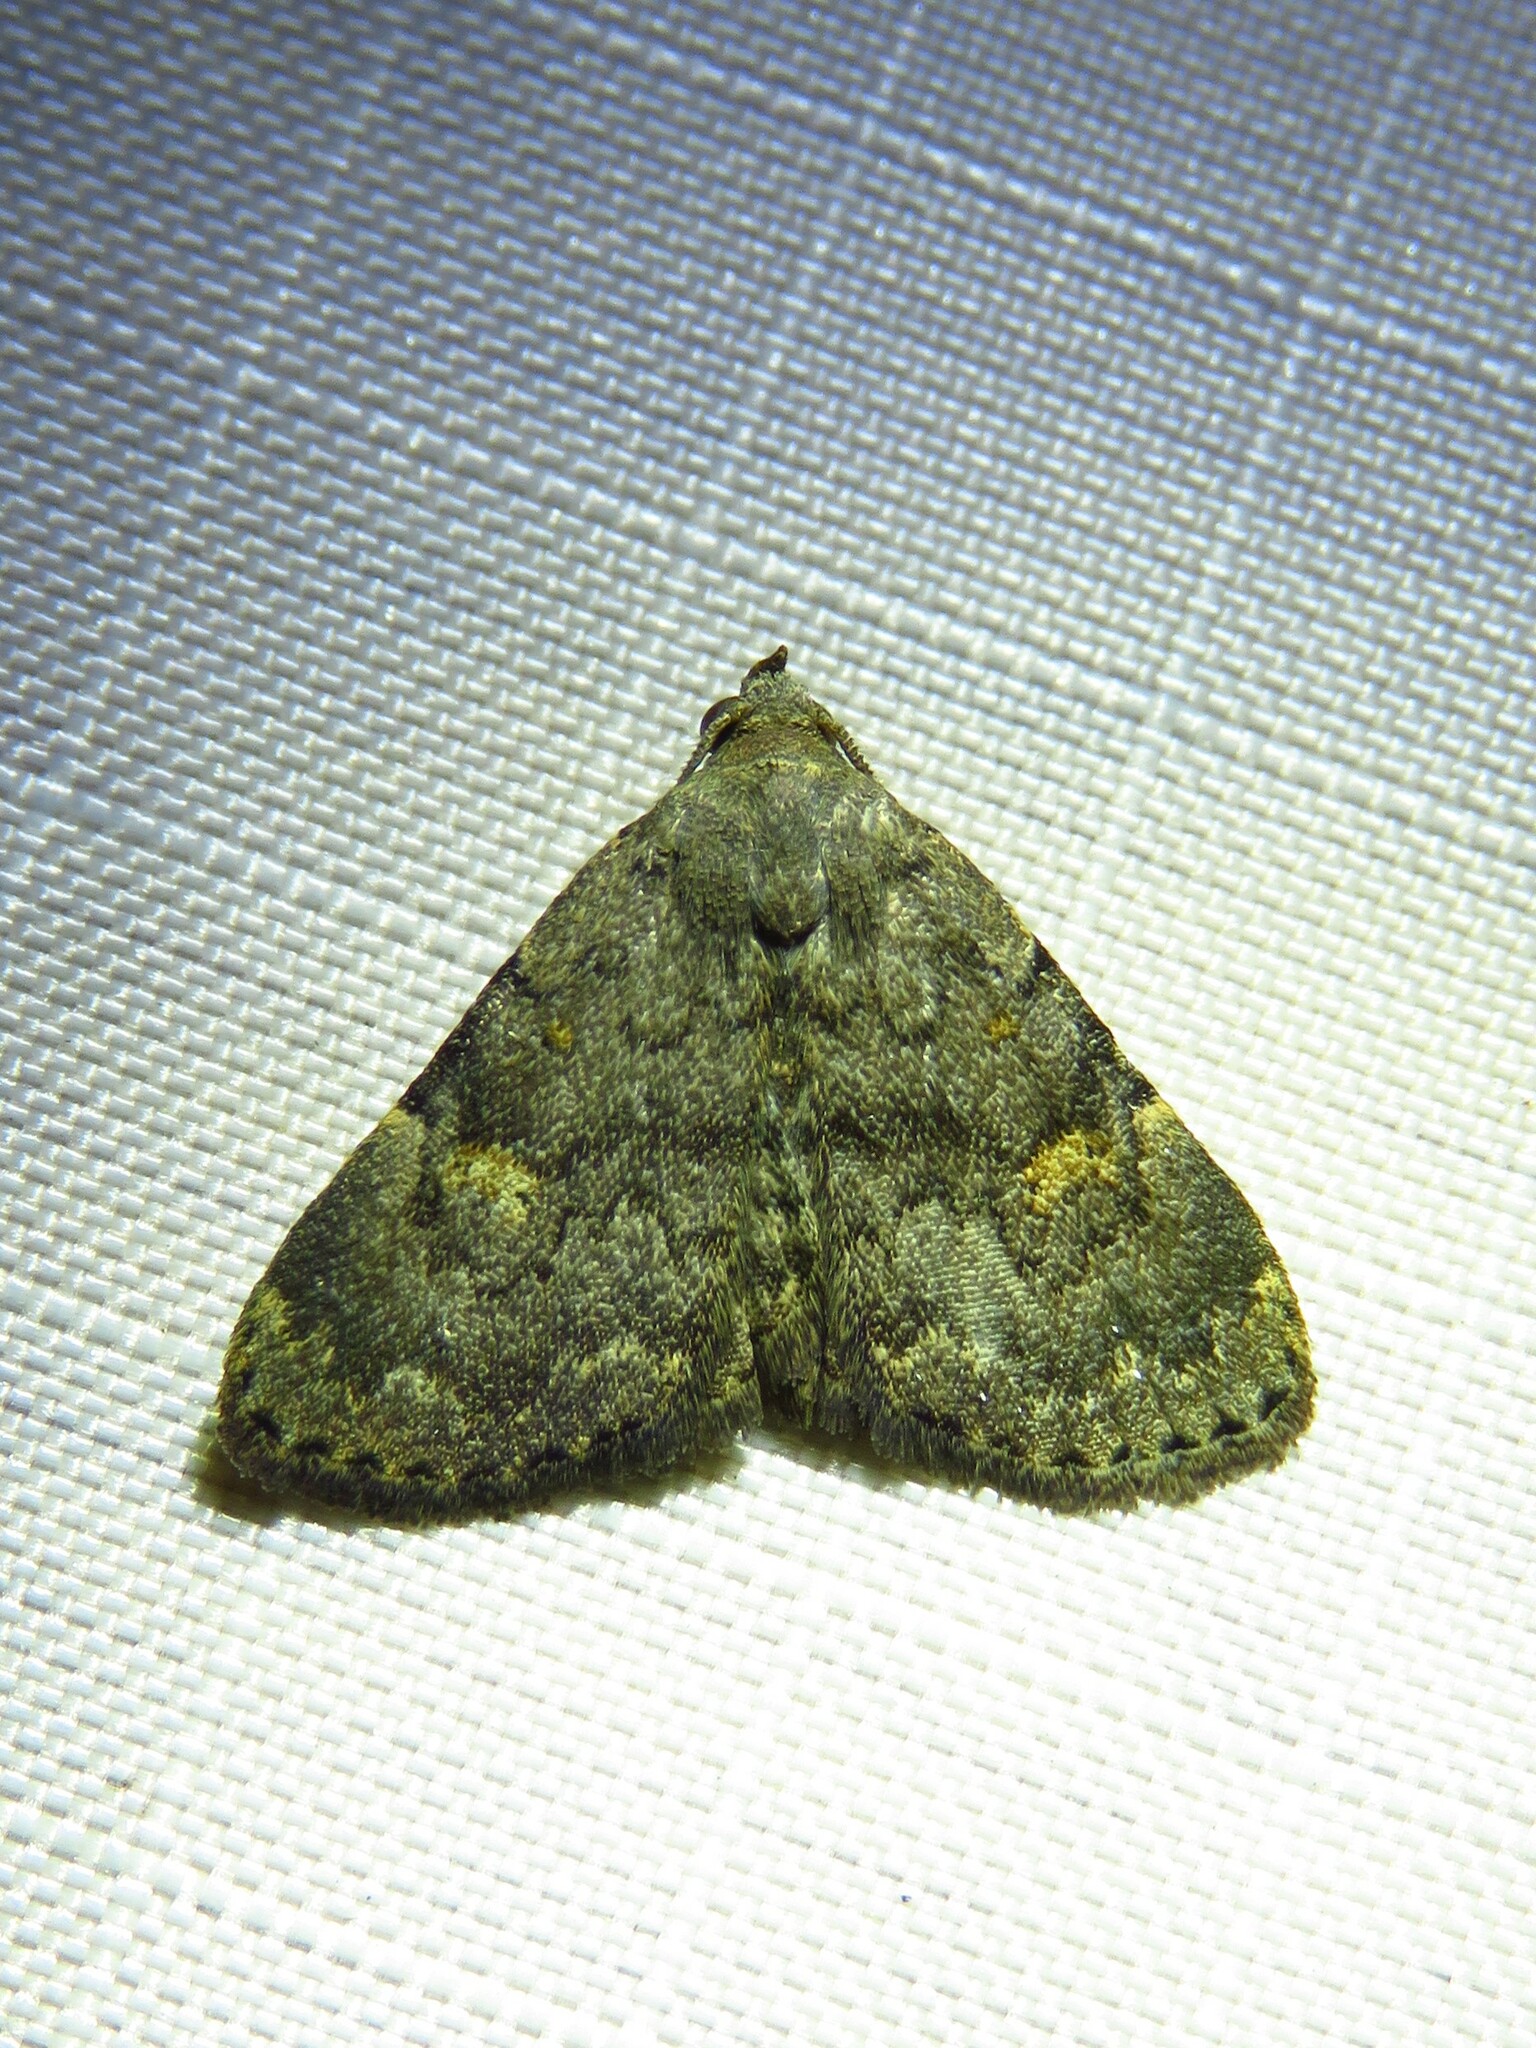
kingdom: Animalia
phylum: Arthropoda
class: Insecta
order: Lepidoptera
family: Erebidae
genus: Idia
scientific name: Idia aemula
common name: Common idia moth
